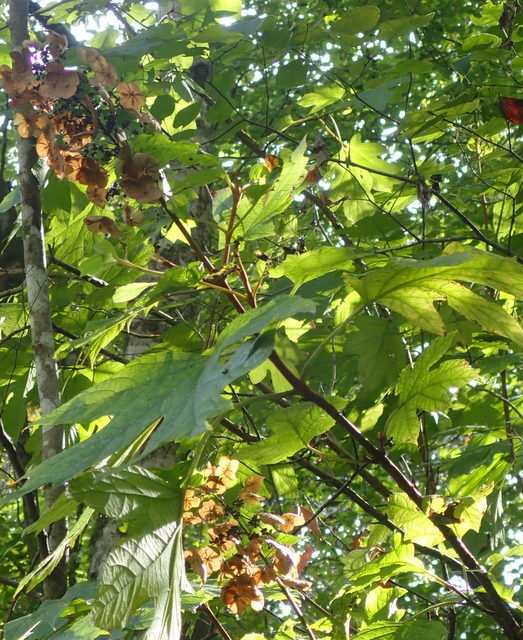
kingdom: Plantae
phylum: Tracheophyta
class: Magnoliopsida
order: Cornales
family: Hydrangeaceae
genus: Hydrangea
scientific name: Hydrangea quercifolia
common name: Oak-leaf hydrangea
